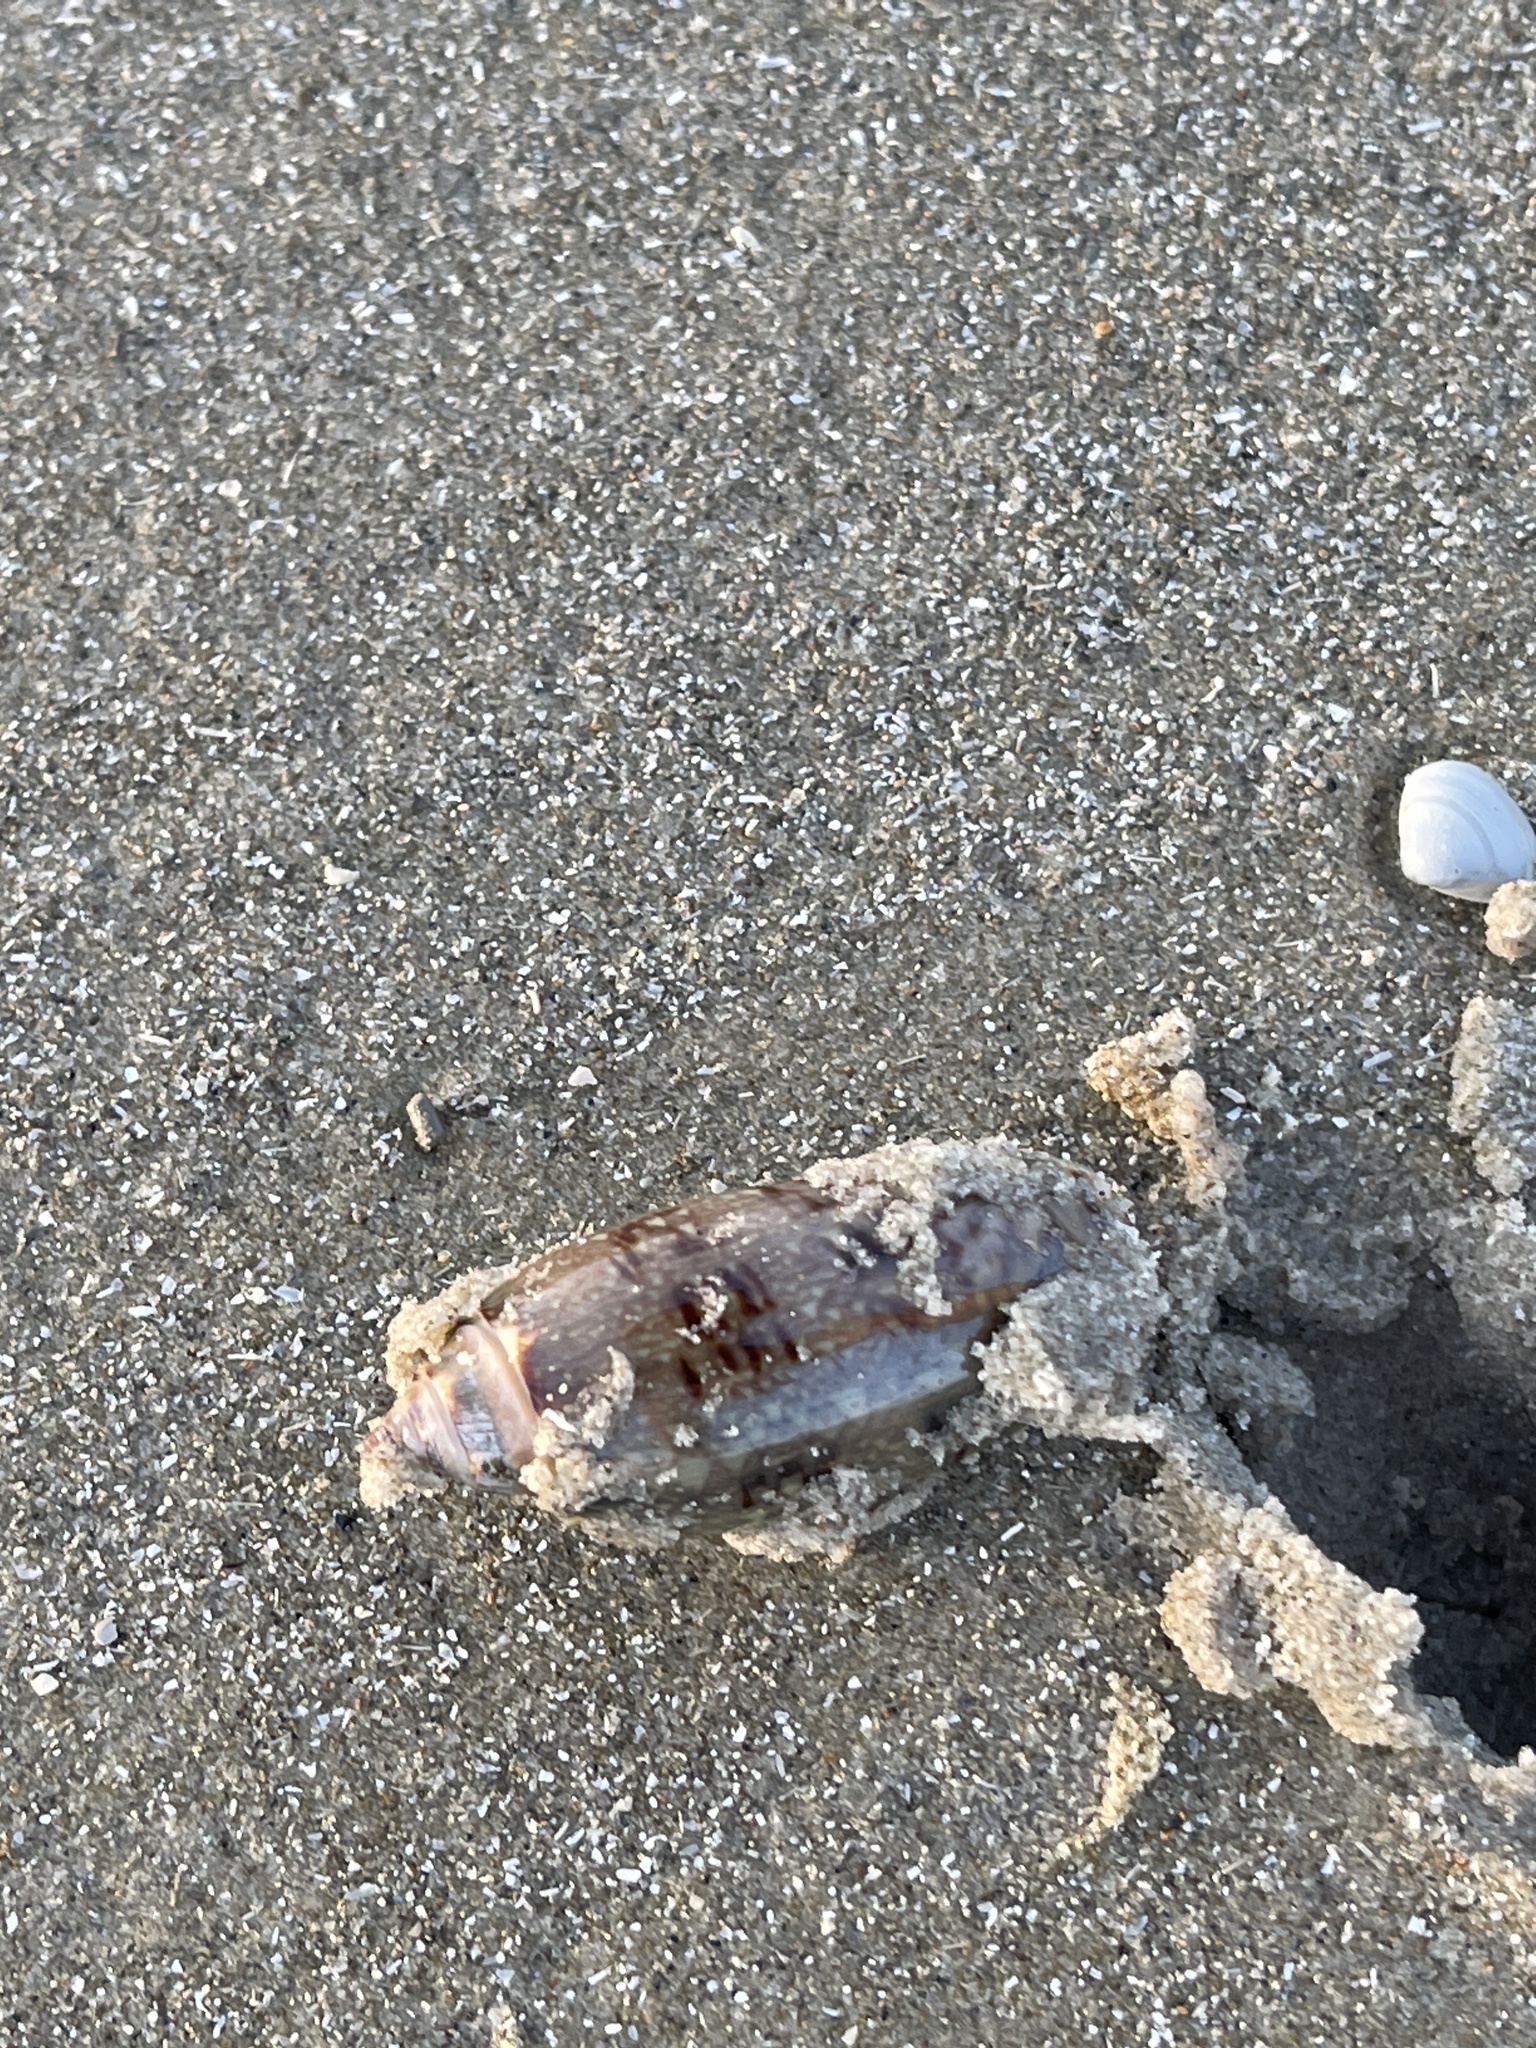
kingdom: Animalia
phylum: Mollusca
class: Gastropoda
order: Neogastropoda
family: Olividae
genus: Oliva
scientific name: Oliva sayana
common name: Lettered olive
